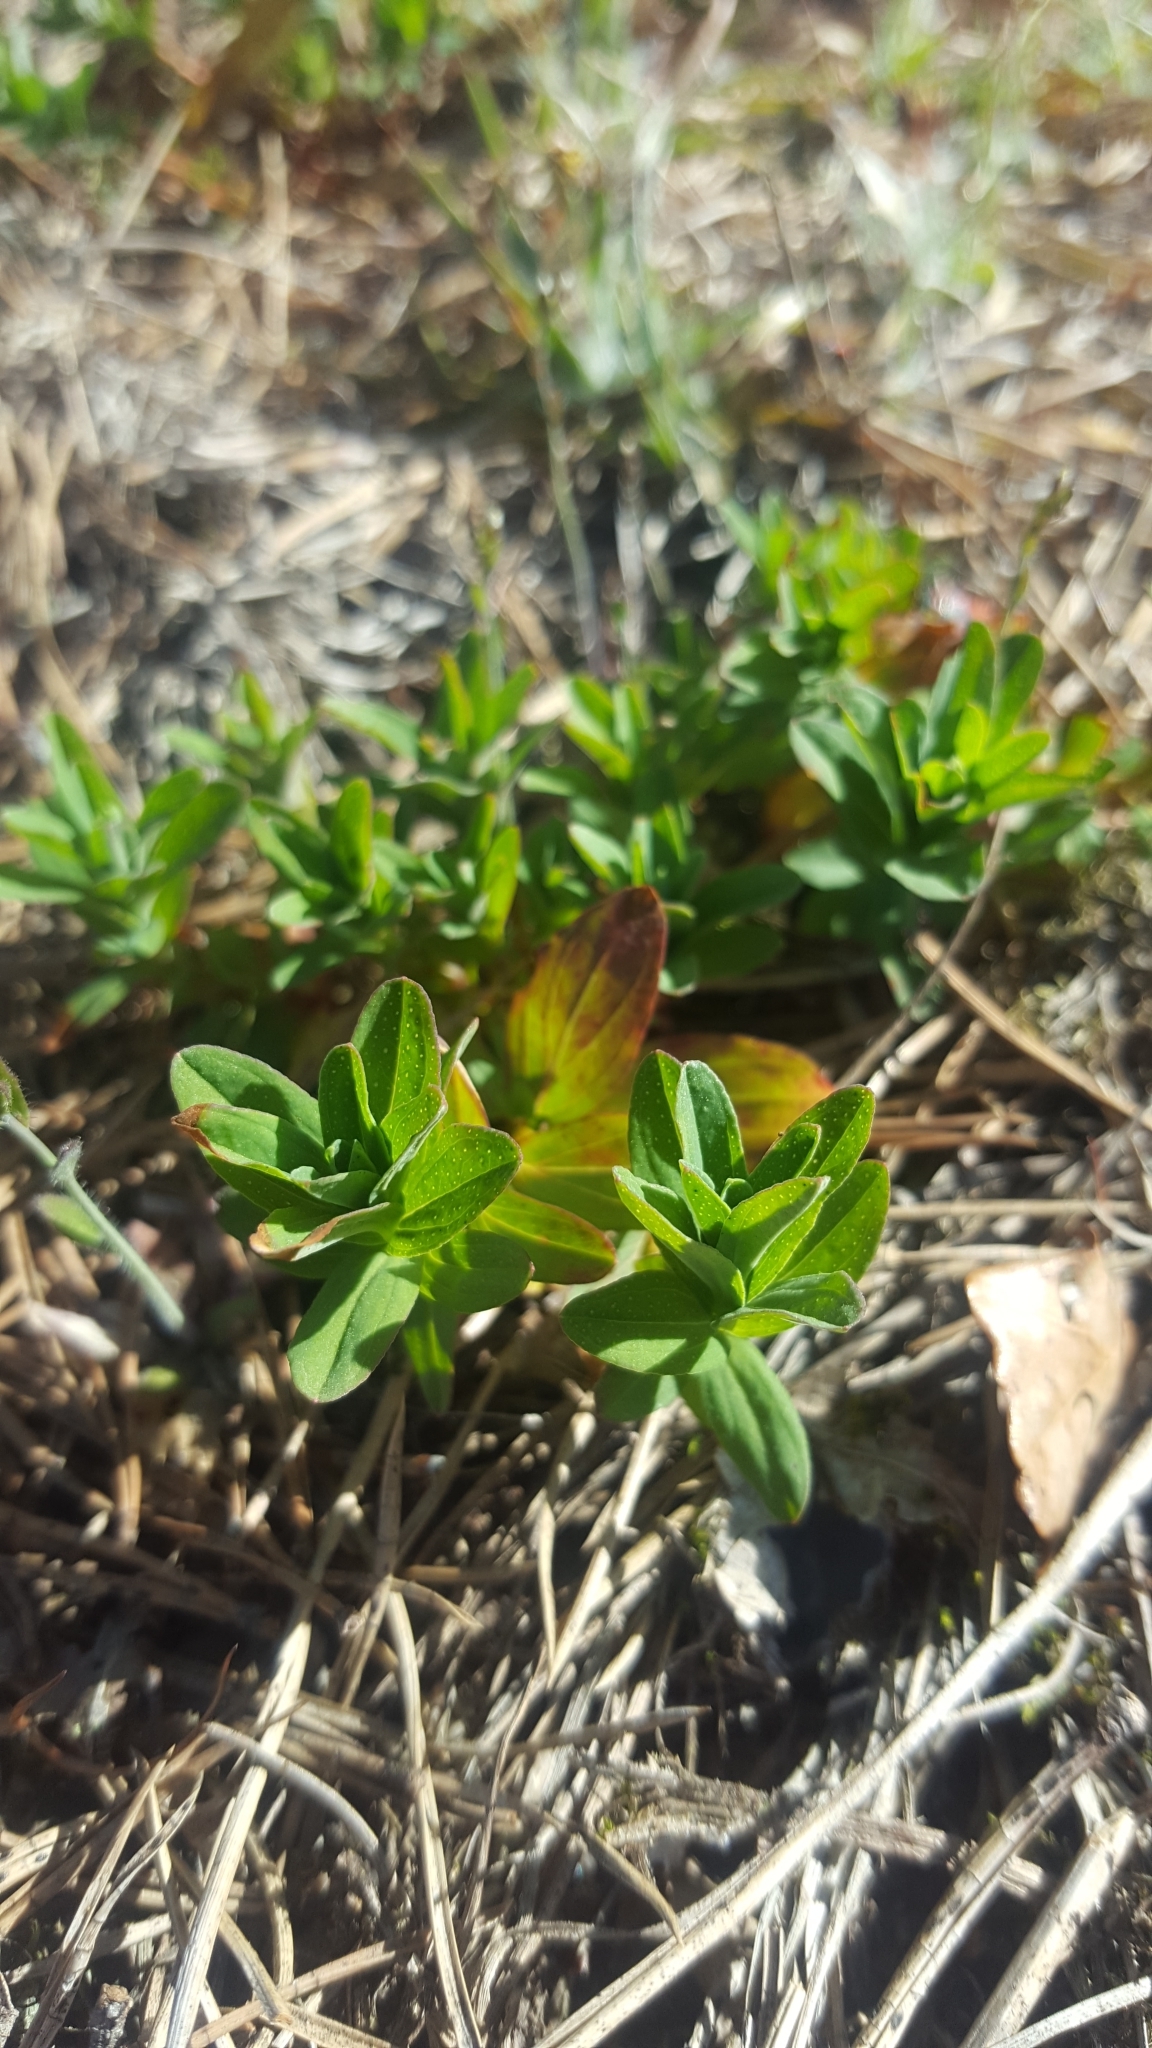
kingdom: Plantae
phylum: Tracheophyta
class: Magnoliopsida
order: Malpighiales
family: Hypericaceae
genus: Hypericum
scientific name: Hypericum perforatum
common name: Common st. johnswort
